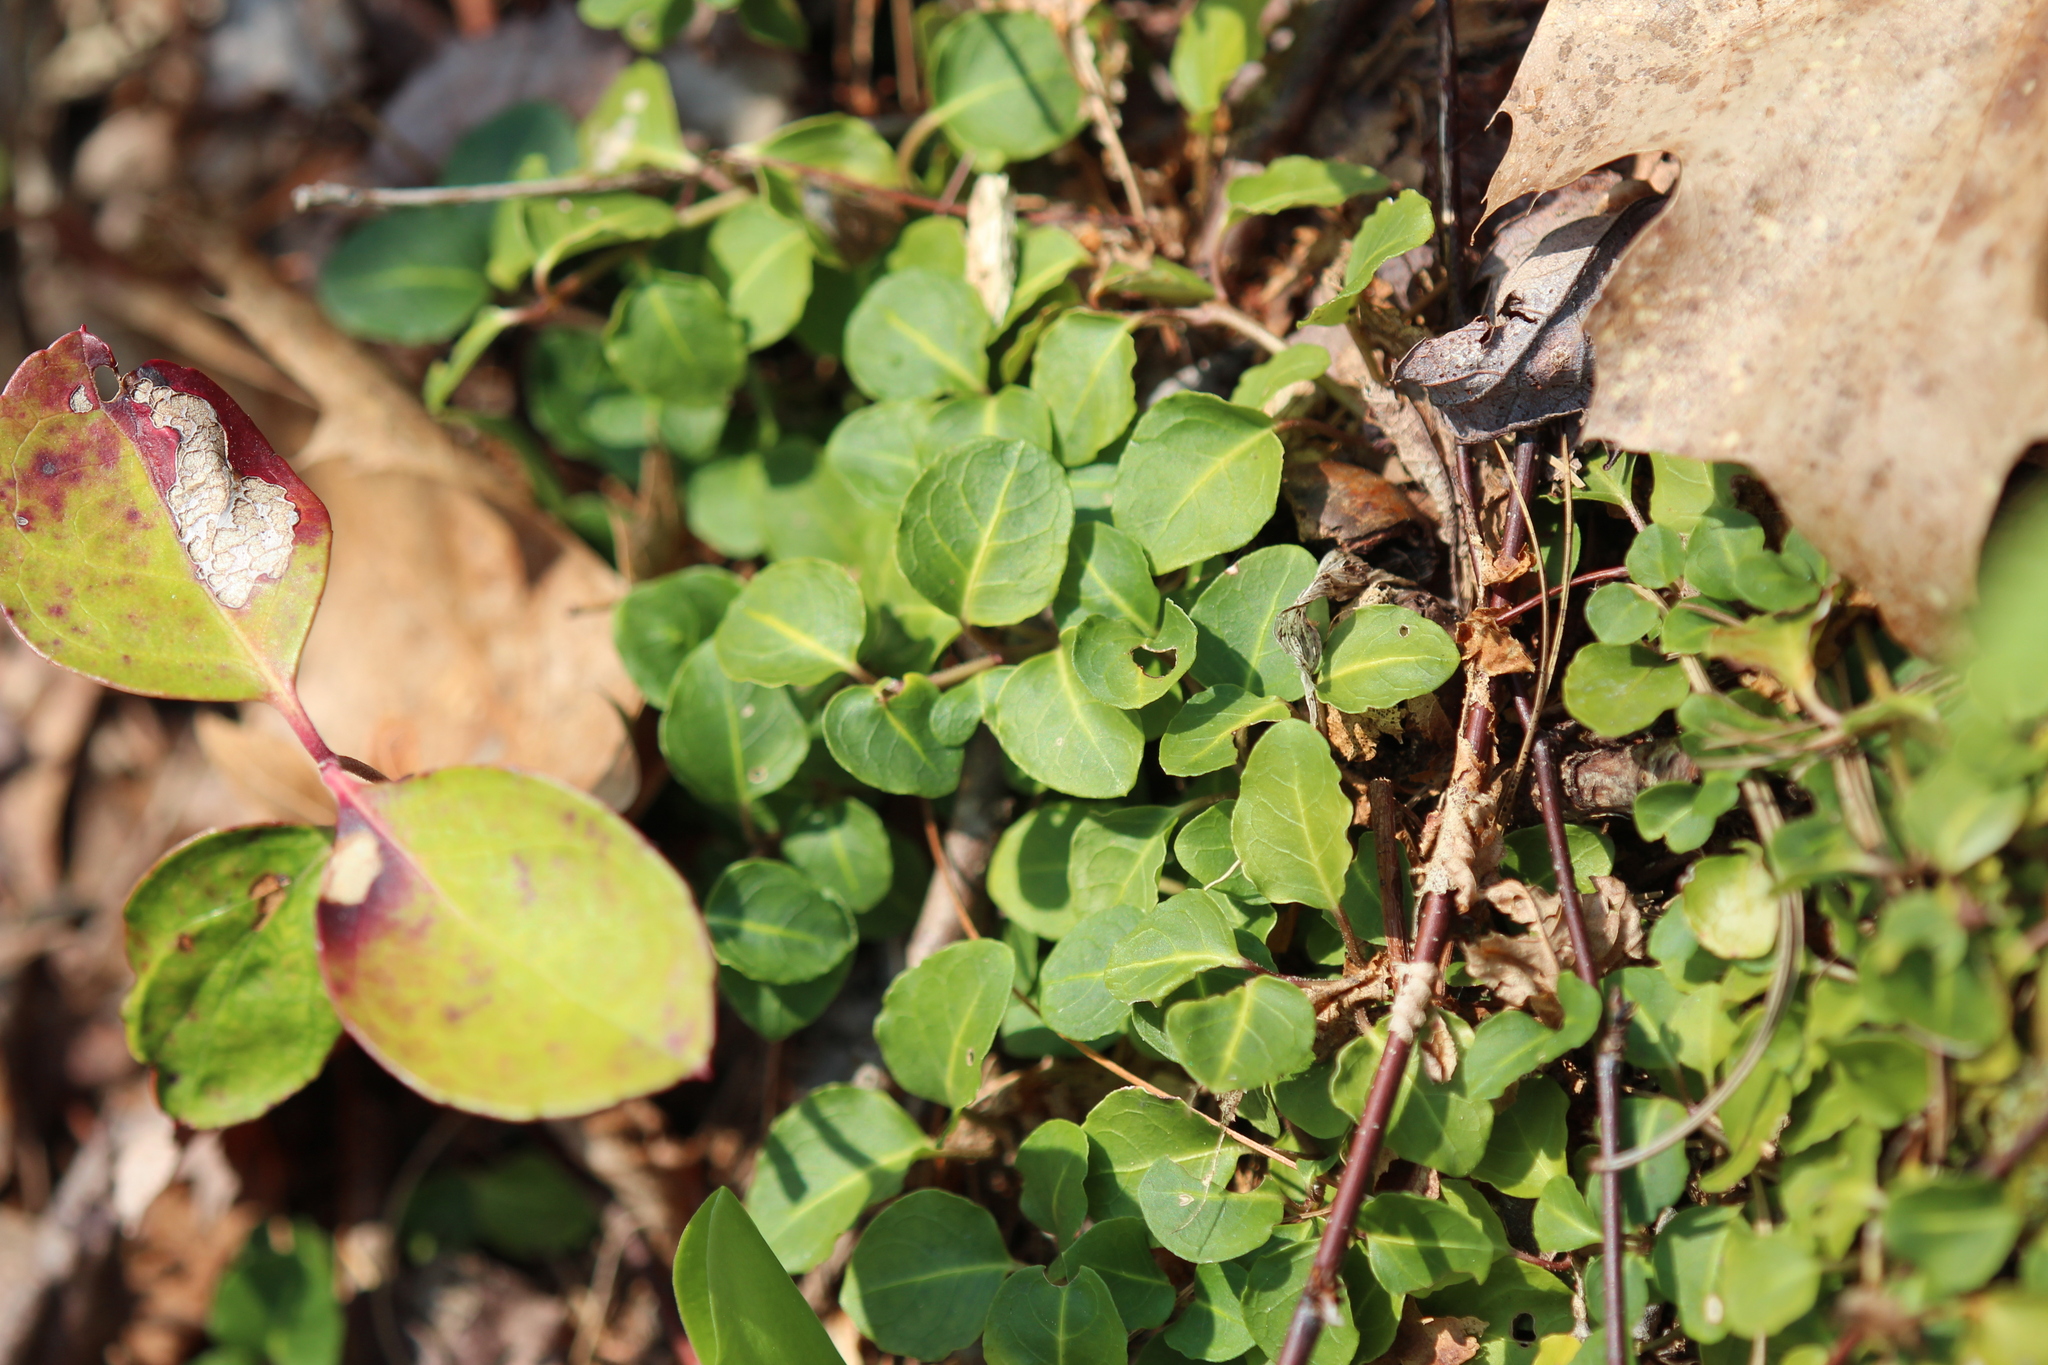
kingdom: Plantae
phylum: Tracheophyta
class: Magnoliopsida
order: Gentianales
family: Rubiaceae
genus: Mitchella
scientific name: Mitchella repens
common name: Partridge-berry
